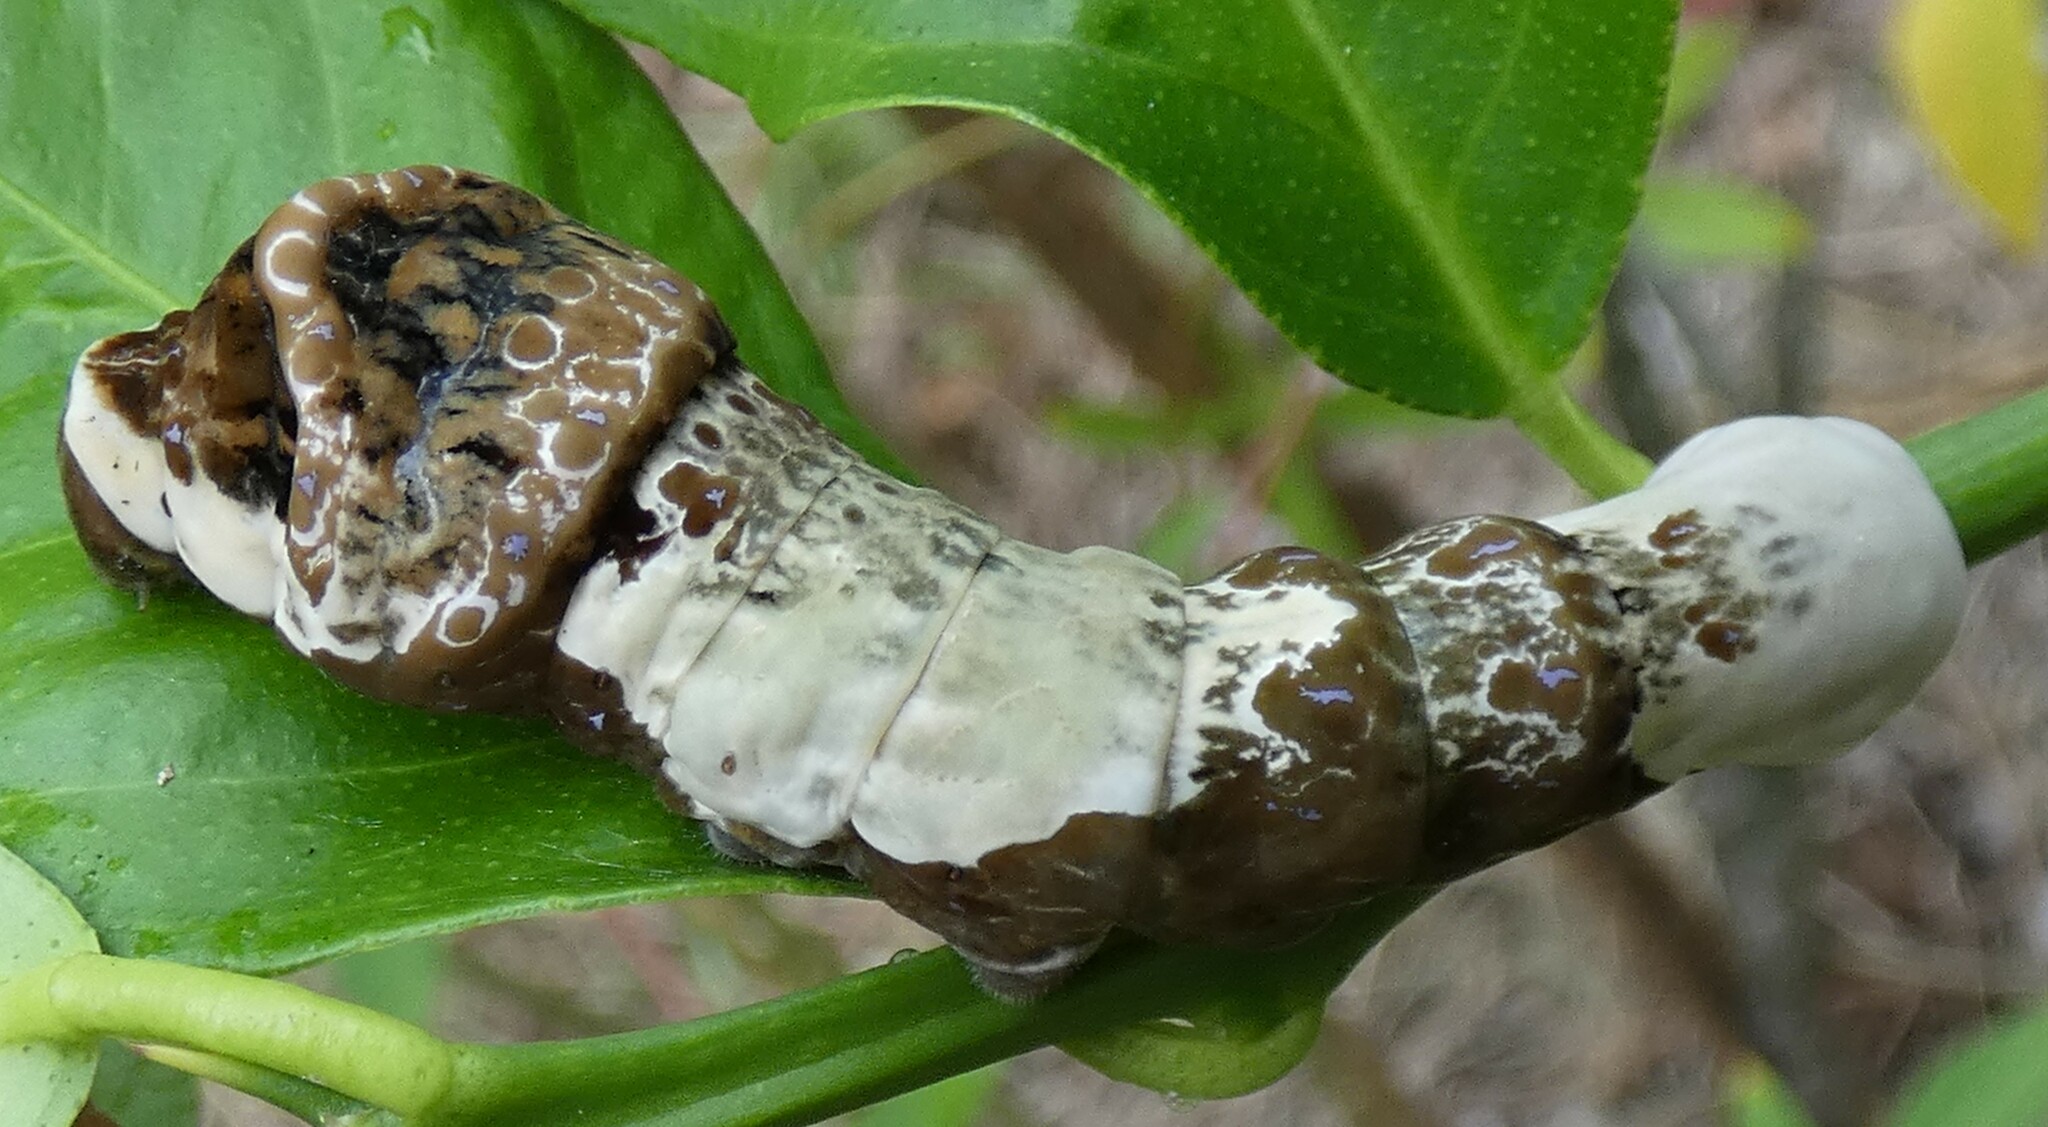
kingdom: Animalia
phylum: Arthropoda
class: Insecta
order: Lepidoptera
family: Papilionidae
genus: Papilio
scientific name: Papilio cresphontes
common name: Giant swallowtail
